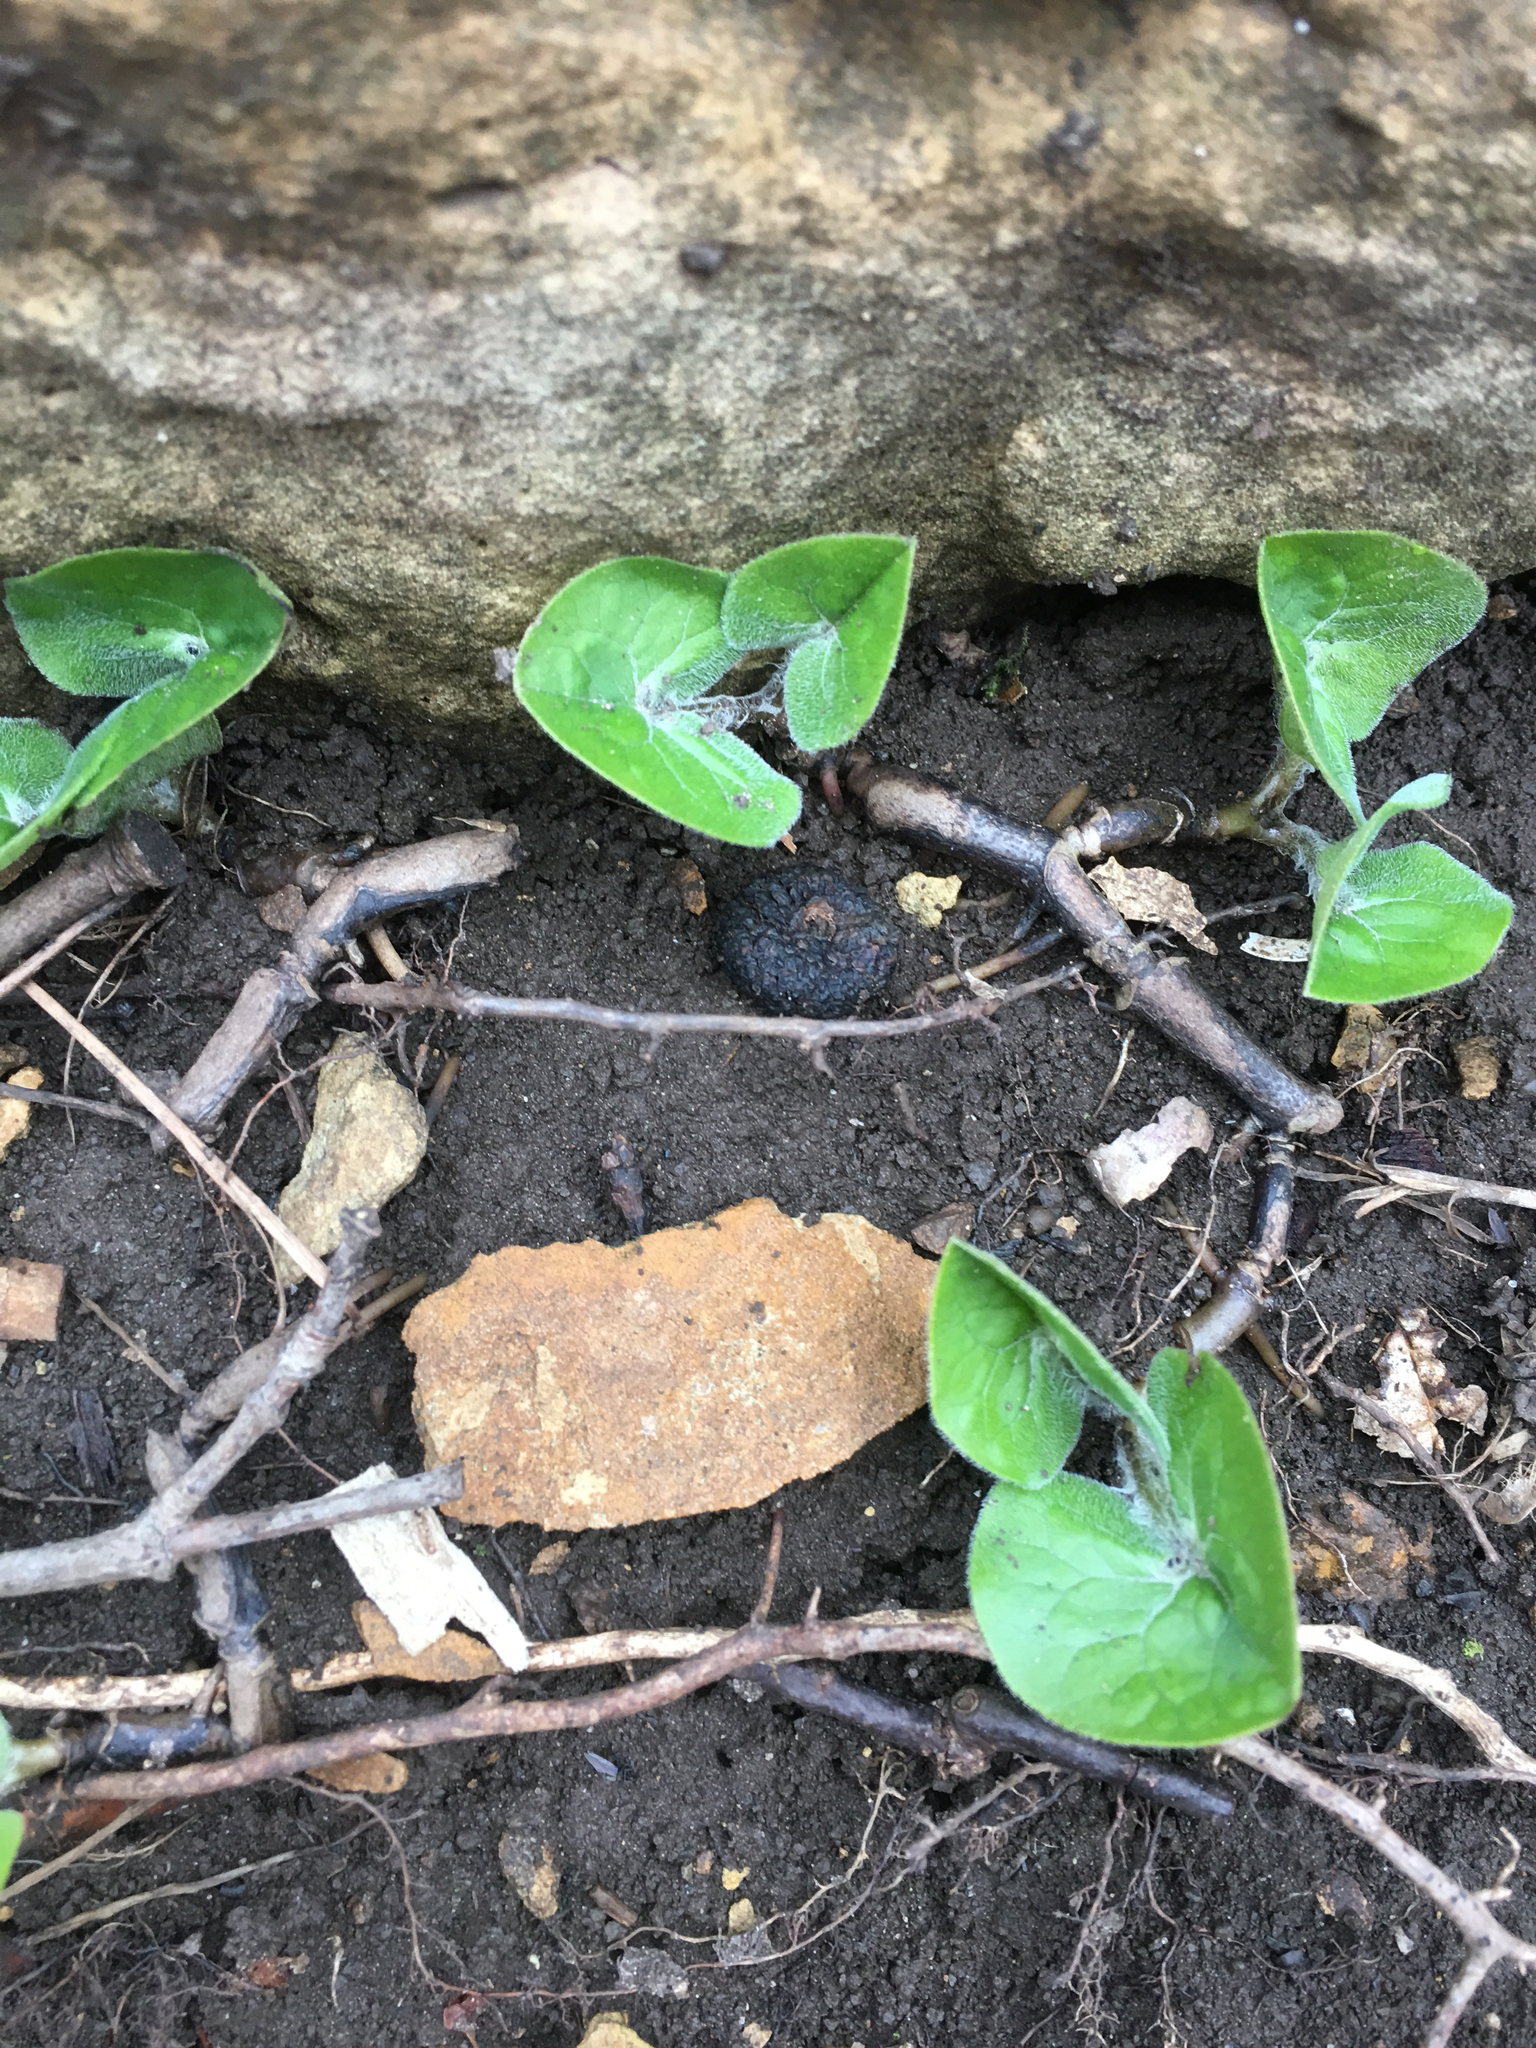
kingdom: Plantae
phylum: Tracheophyta
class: Magnoliopsida
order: Piperales
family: Aristolochiaceae
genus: Asarum
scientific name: Asarum canadense
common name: Wild ginger
